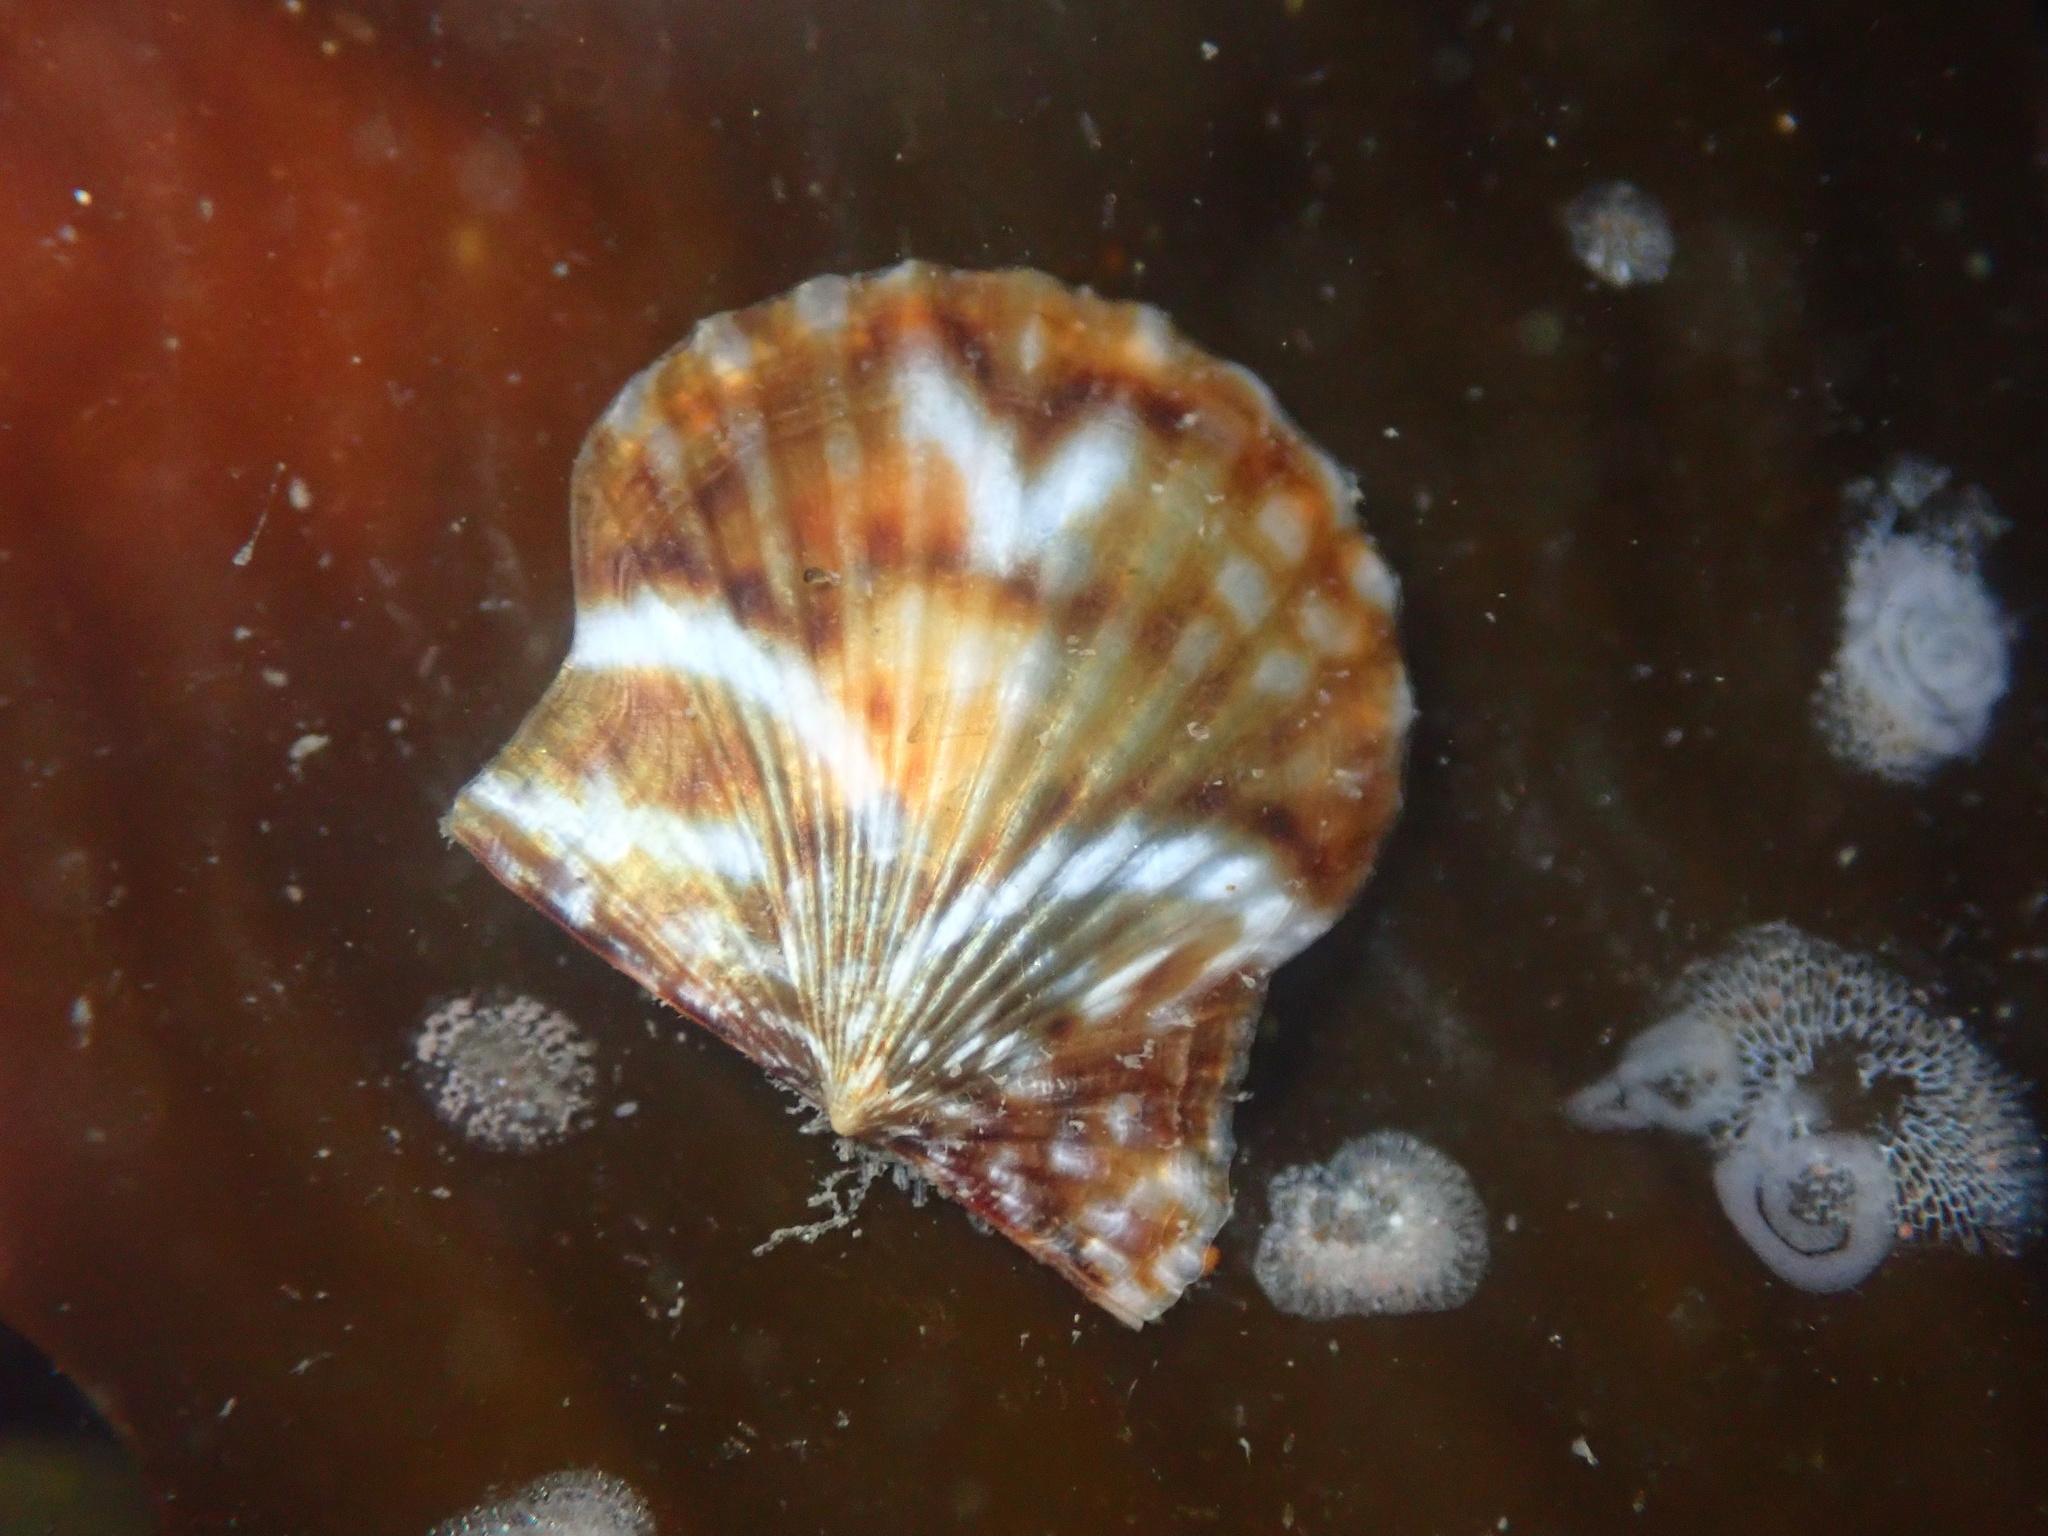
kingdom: Animalia
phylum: Mollusca
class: Bivalvia
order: Pectinida
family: Pectinidae
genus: Leptopecten
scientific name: Leptopecten latiauratus
